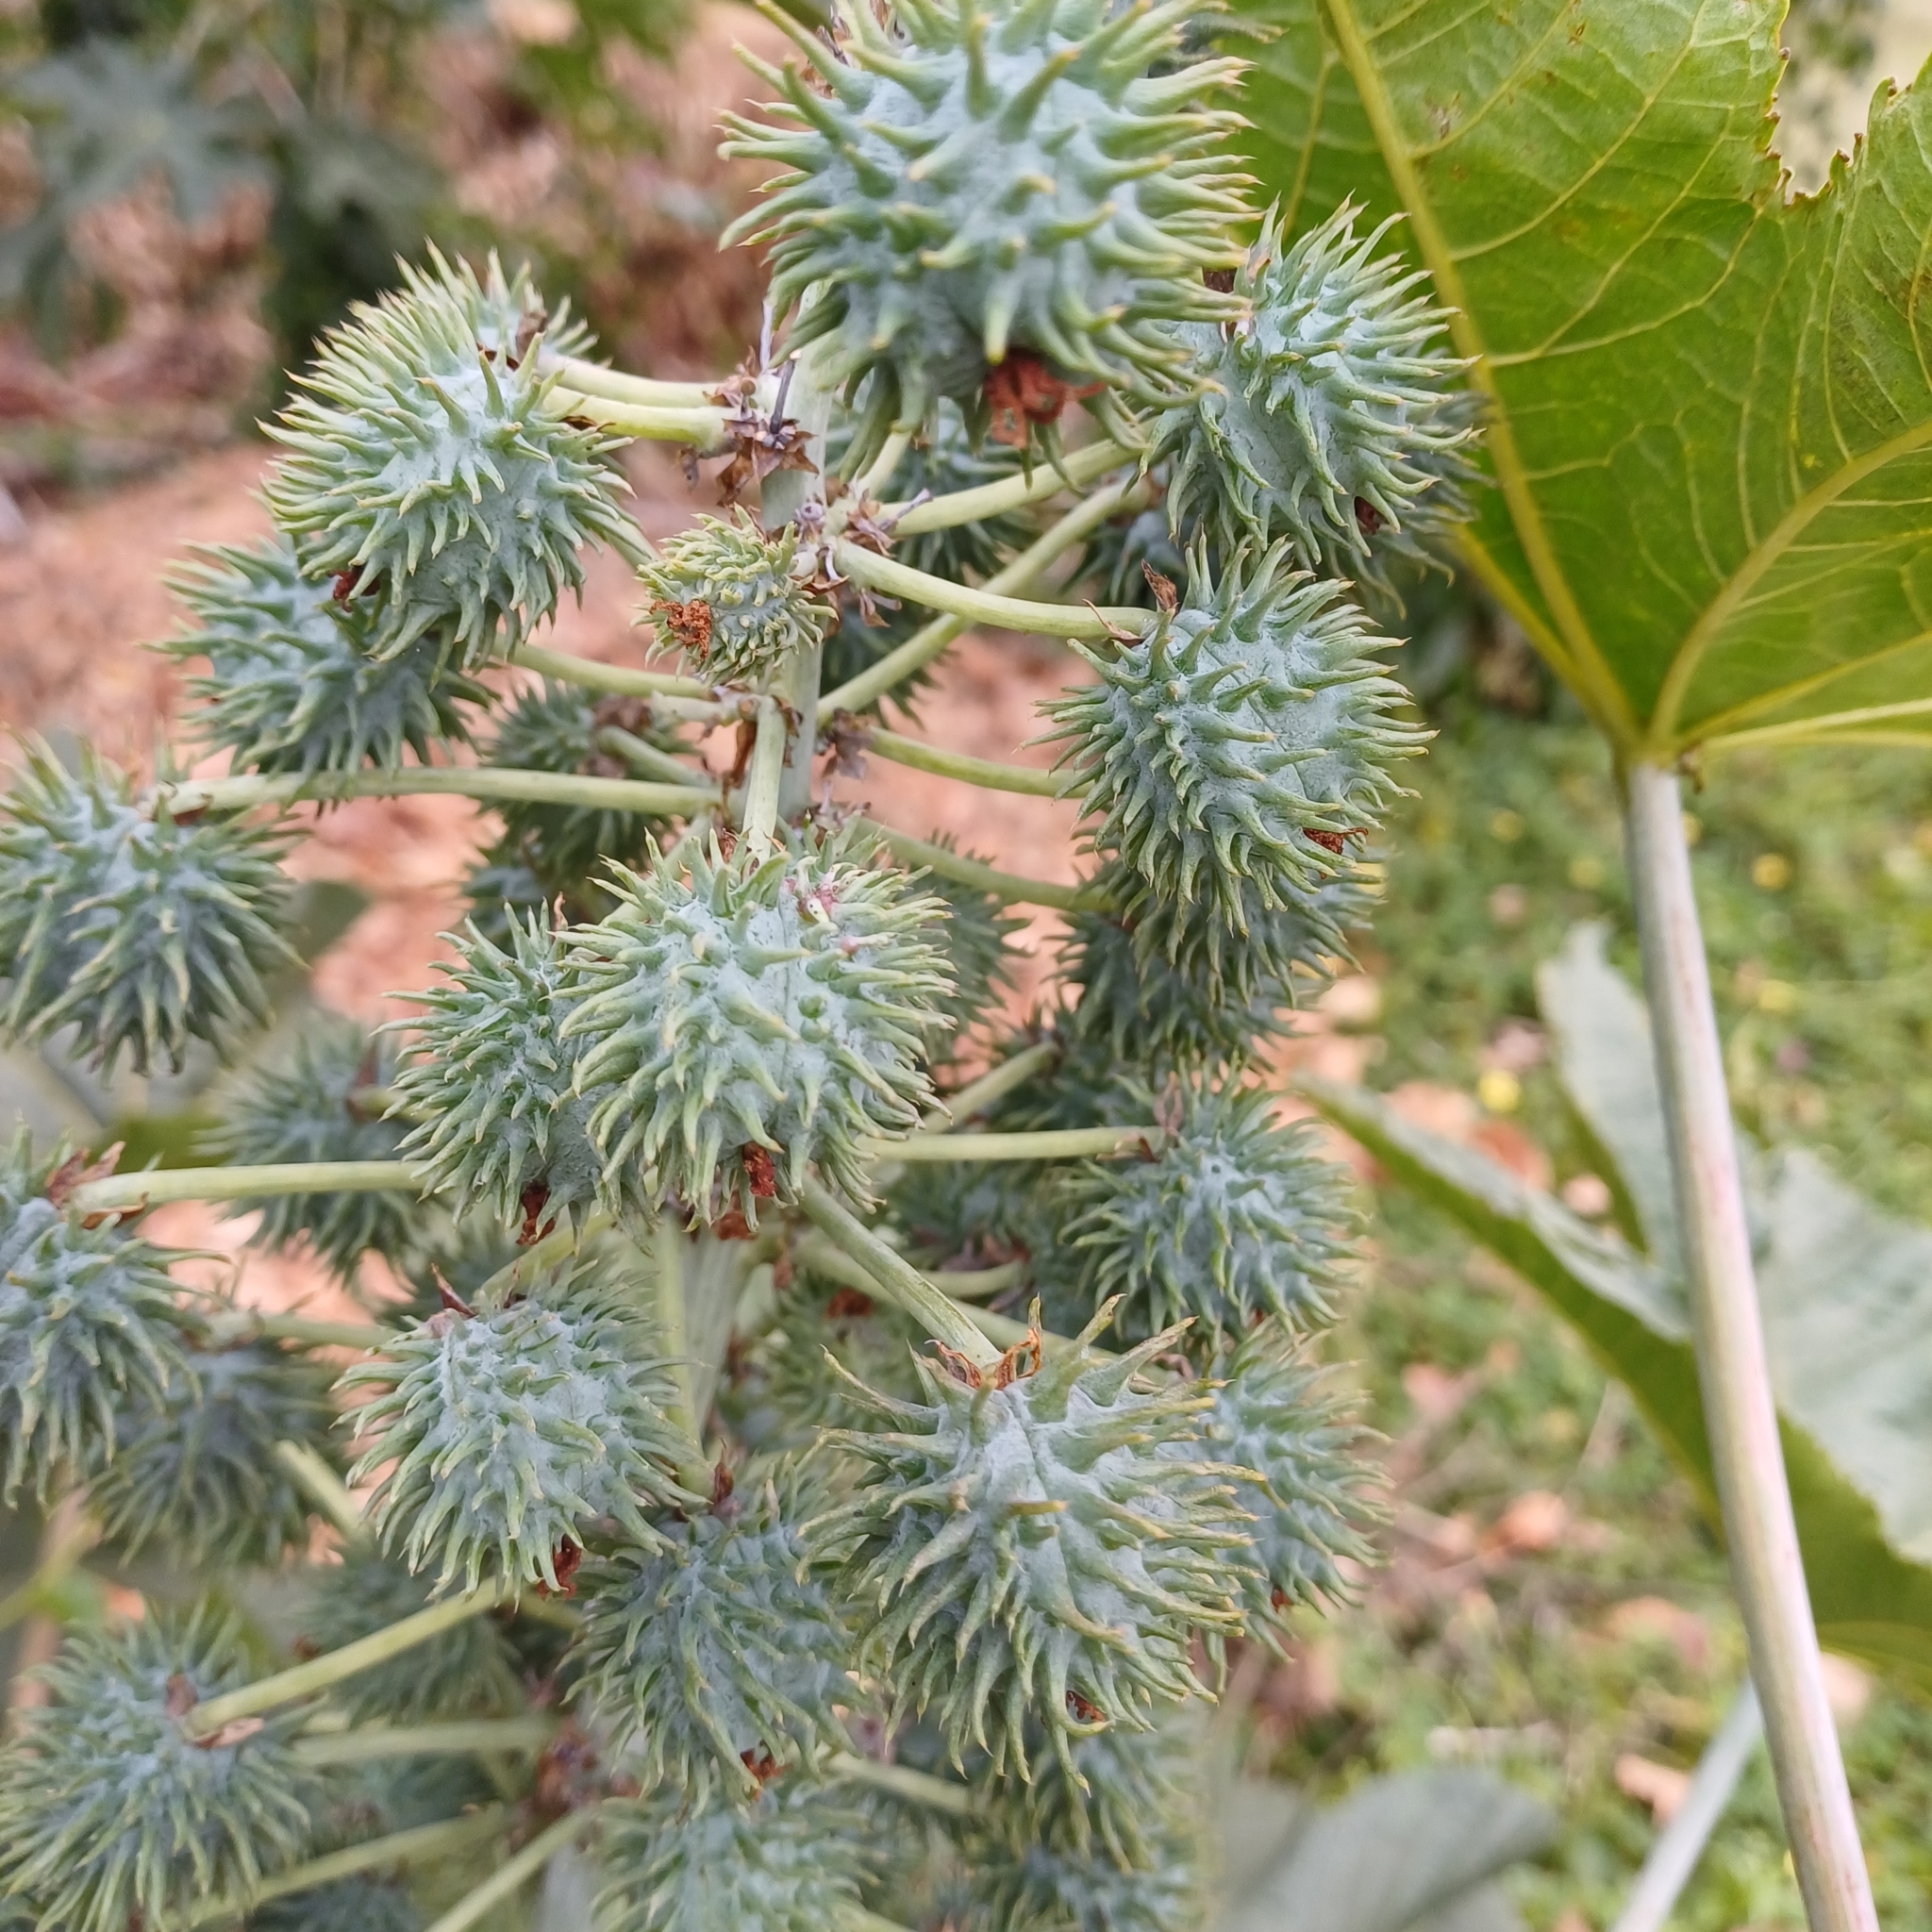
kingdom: Plantae
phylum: Tracheophyta
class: Magnoliopsida
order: Malpighiales
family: Euphorbiaceae
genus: Ricinus
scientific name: Ricinus communis
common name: Castor-oil-plant
